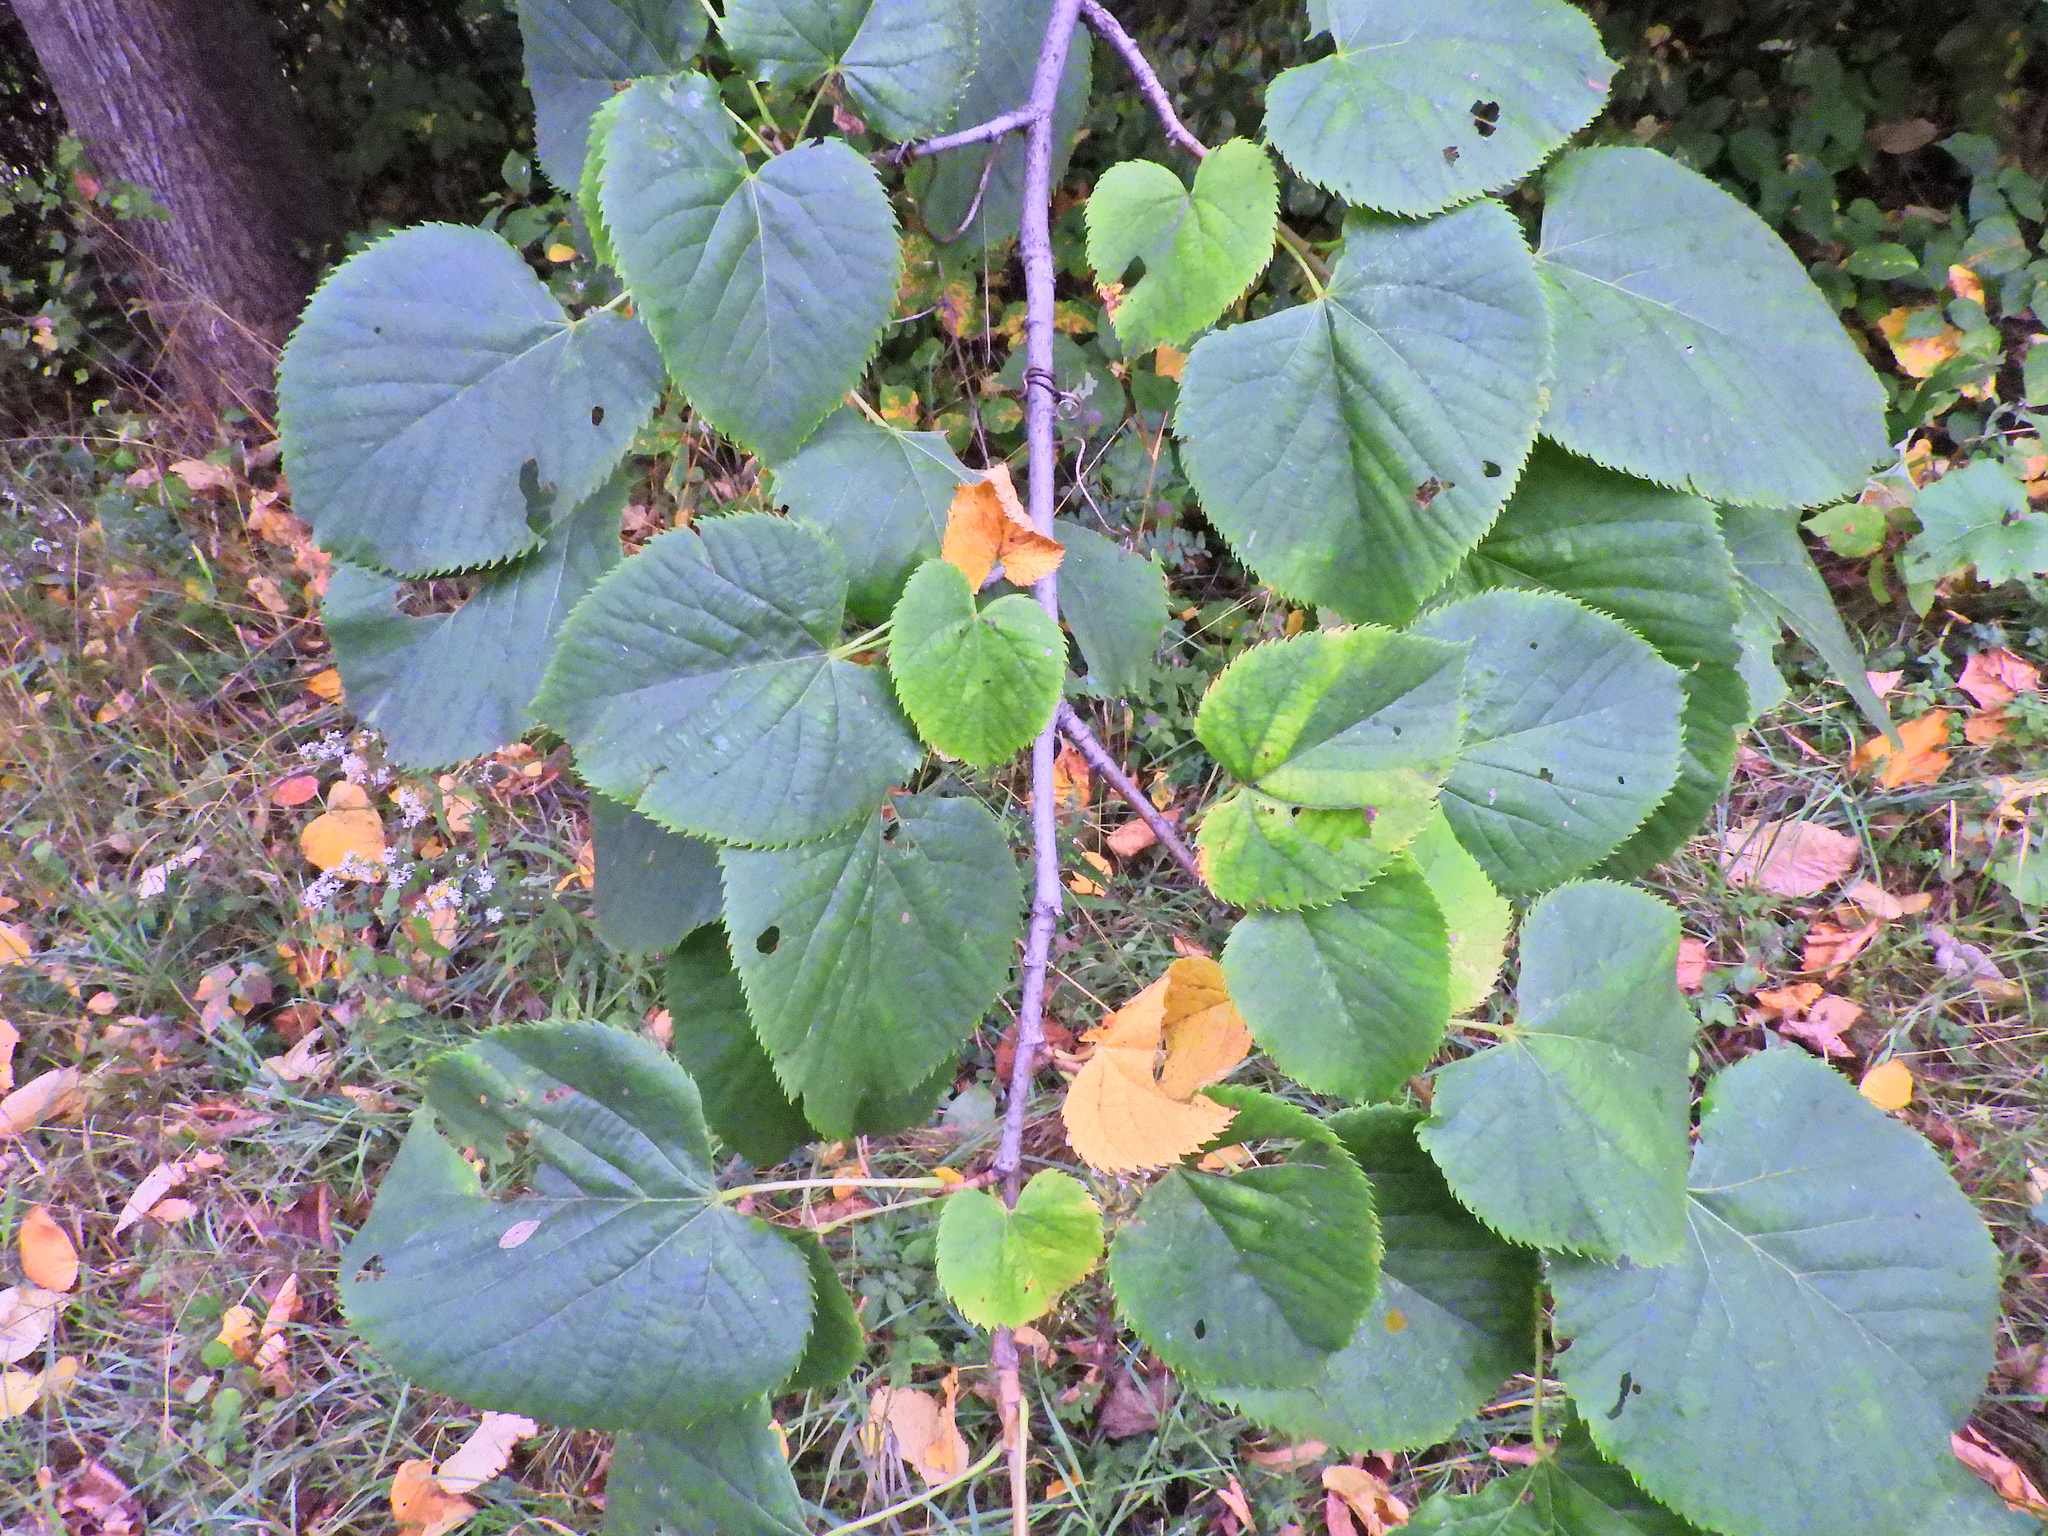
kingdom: Plantae
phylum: Tracheophyta
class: Magnoliopsida
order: Malvales
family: Malvaceae
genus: Tilia
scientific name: Tilia americana
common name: Basswood
